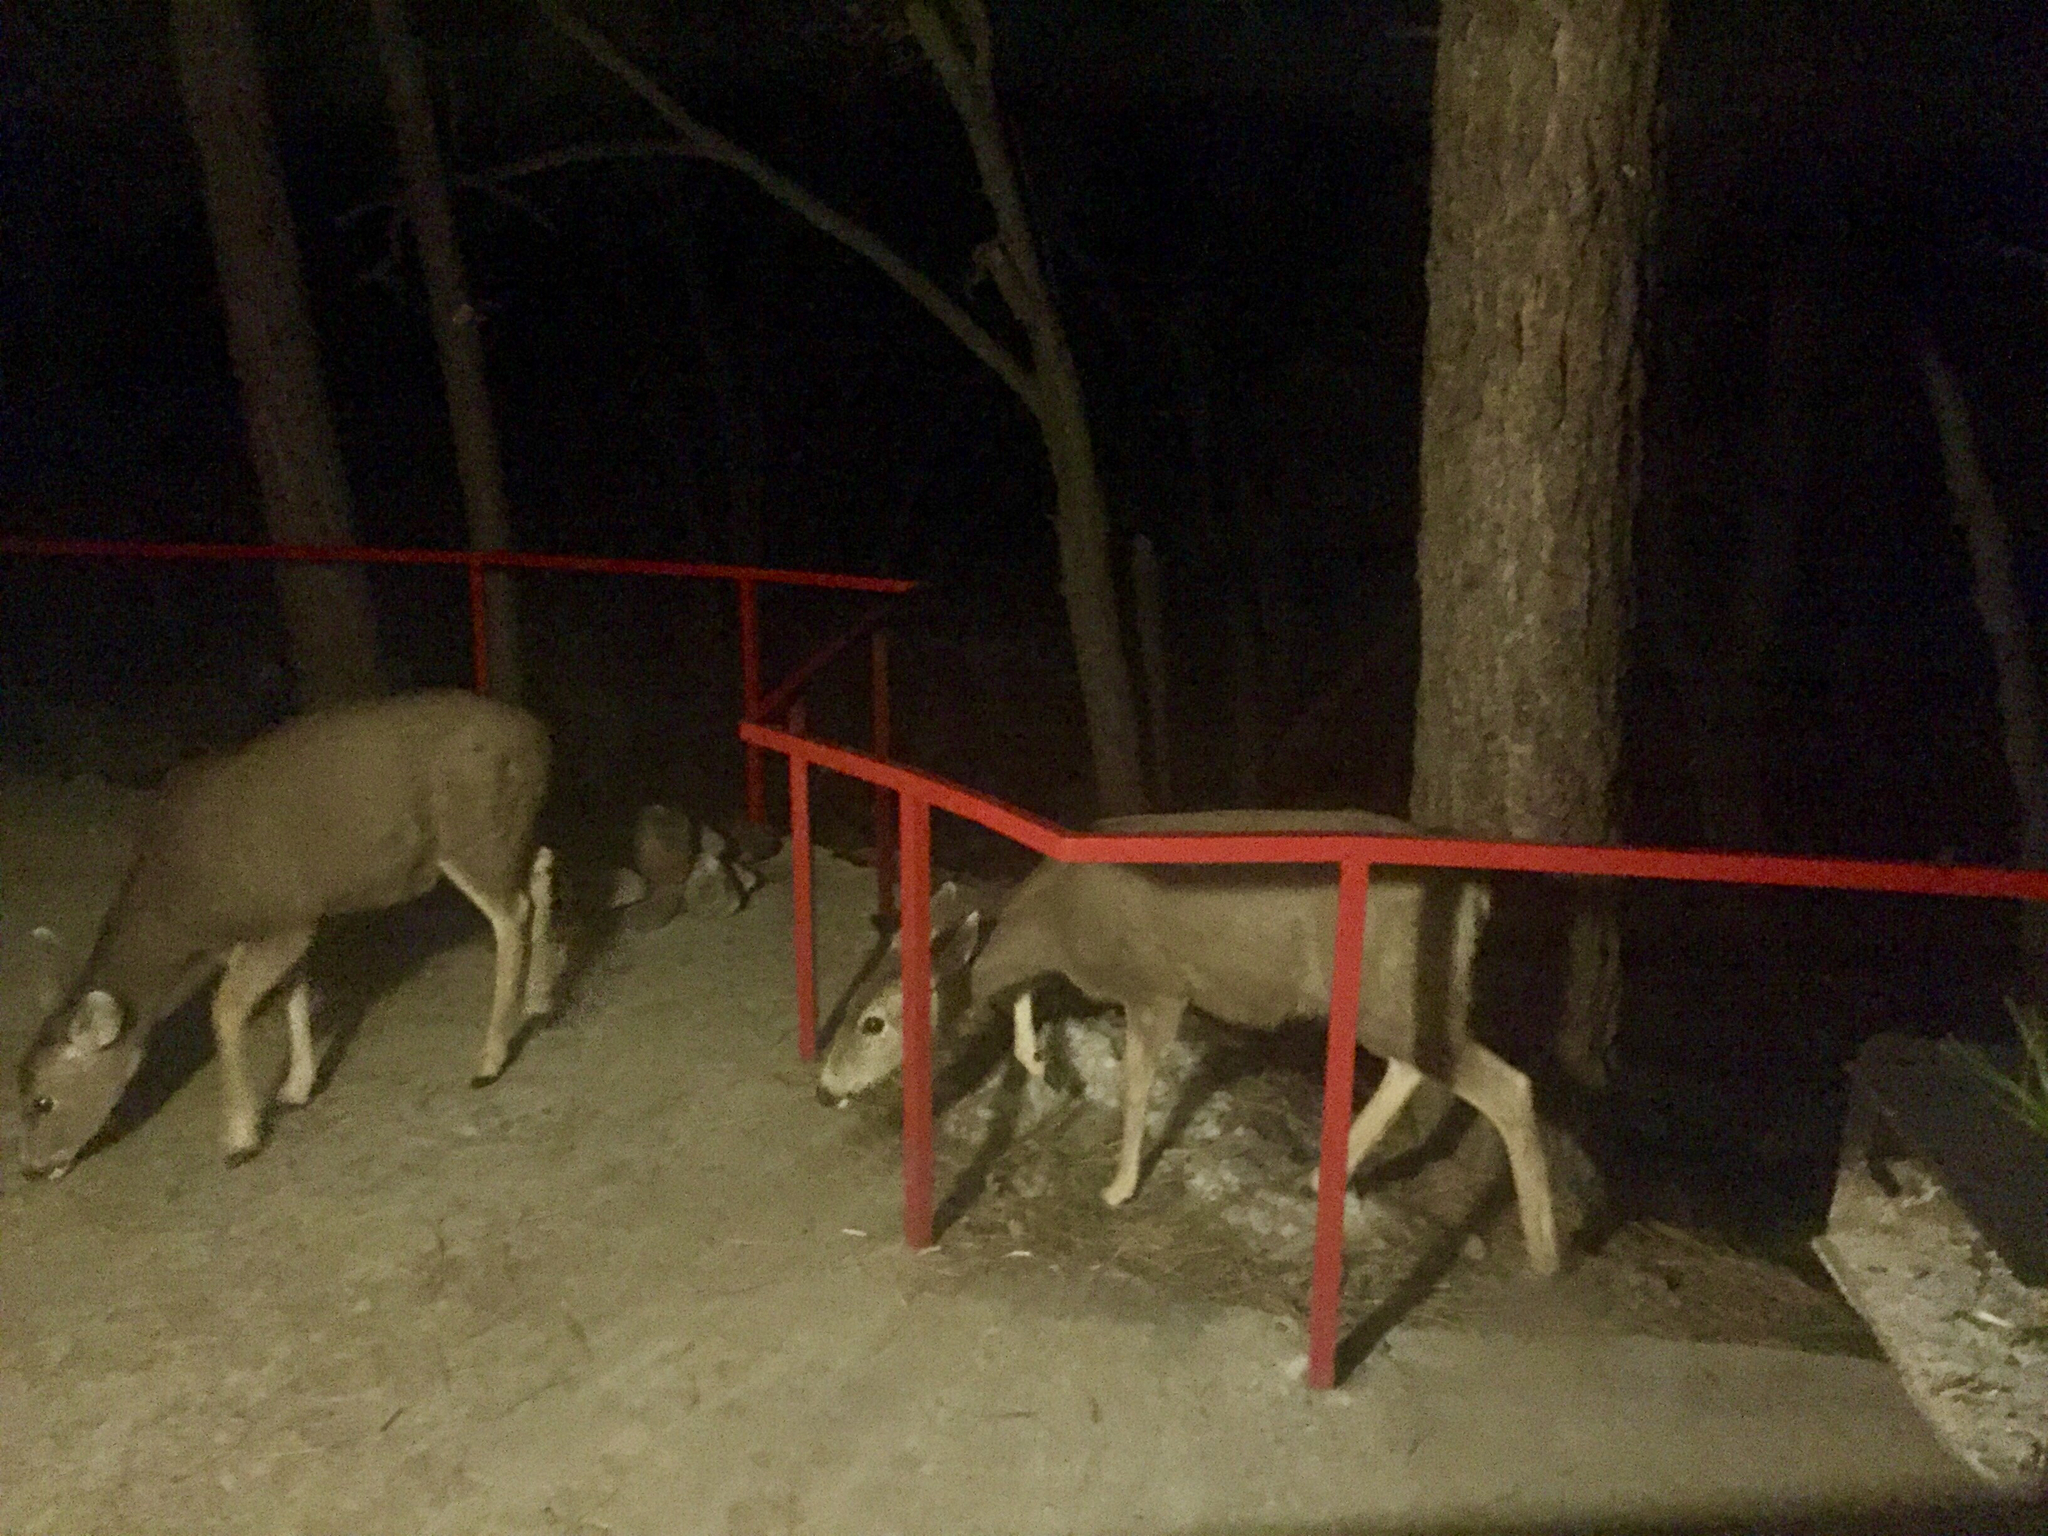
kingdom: Animalia
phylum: Chordata
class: Mammalia
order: Artiodactyla
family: Cervidae
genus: Odocoileus
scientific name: Odocoileus hemionus
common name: Mule deer
